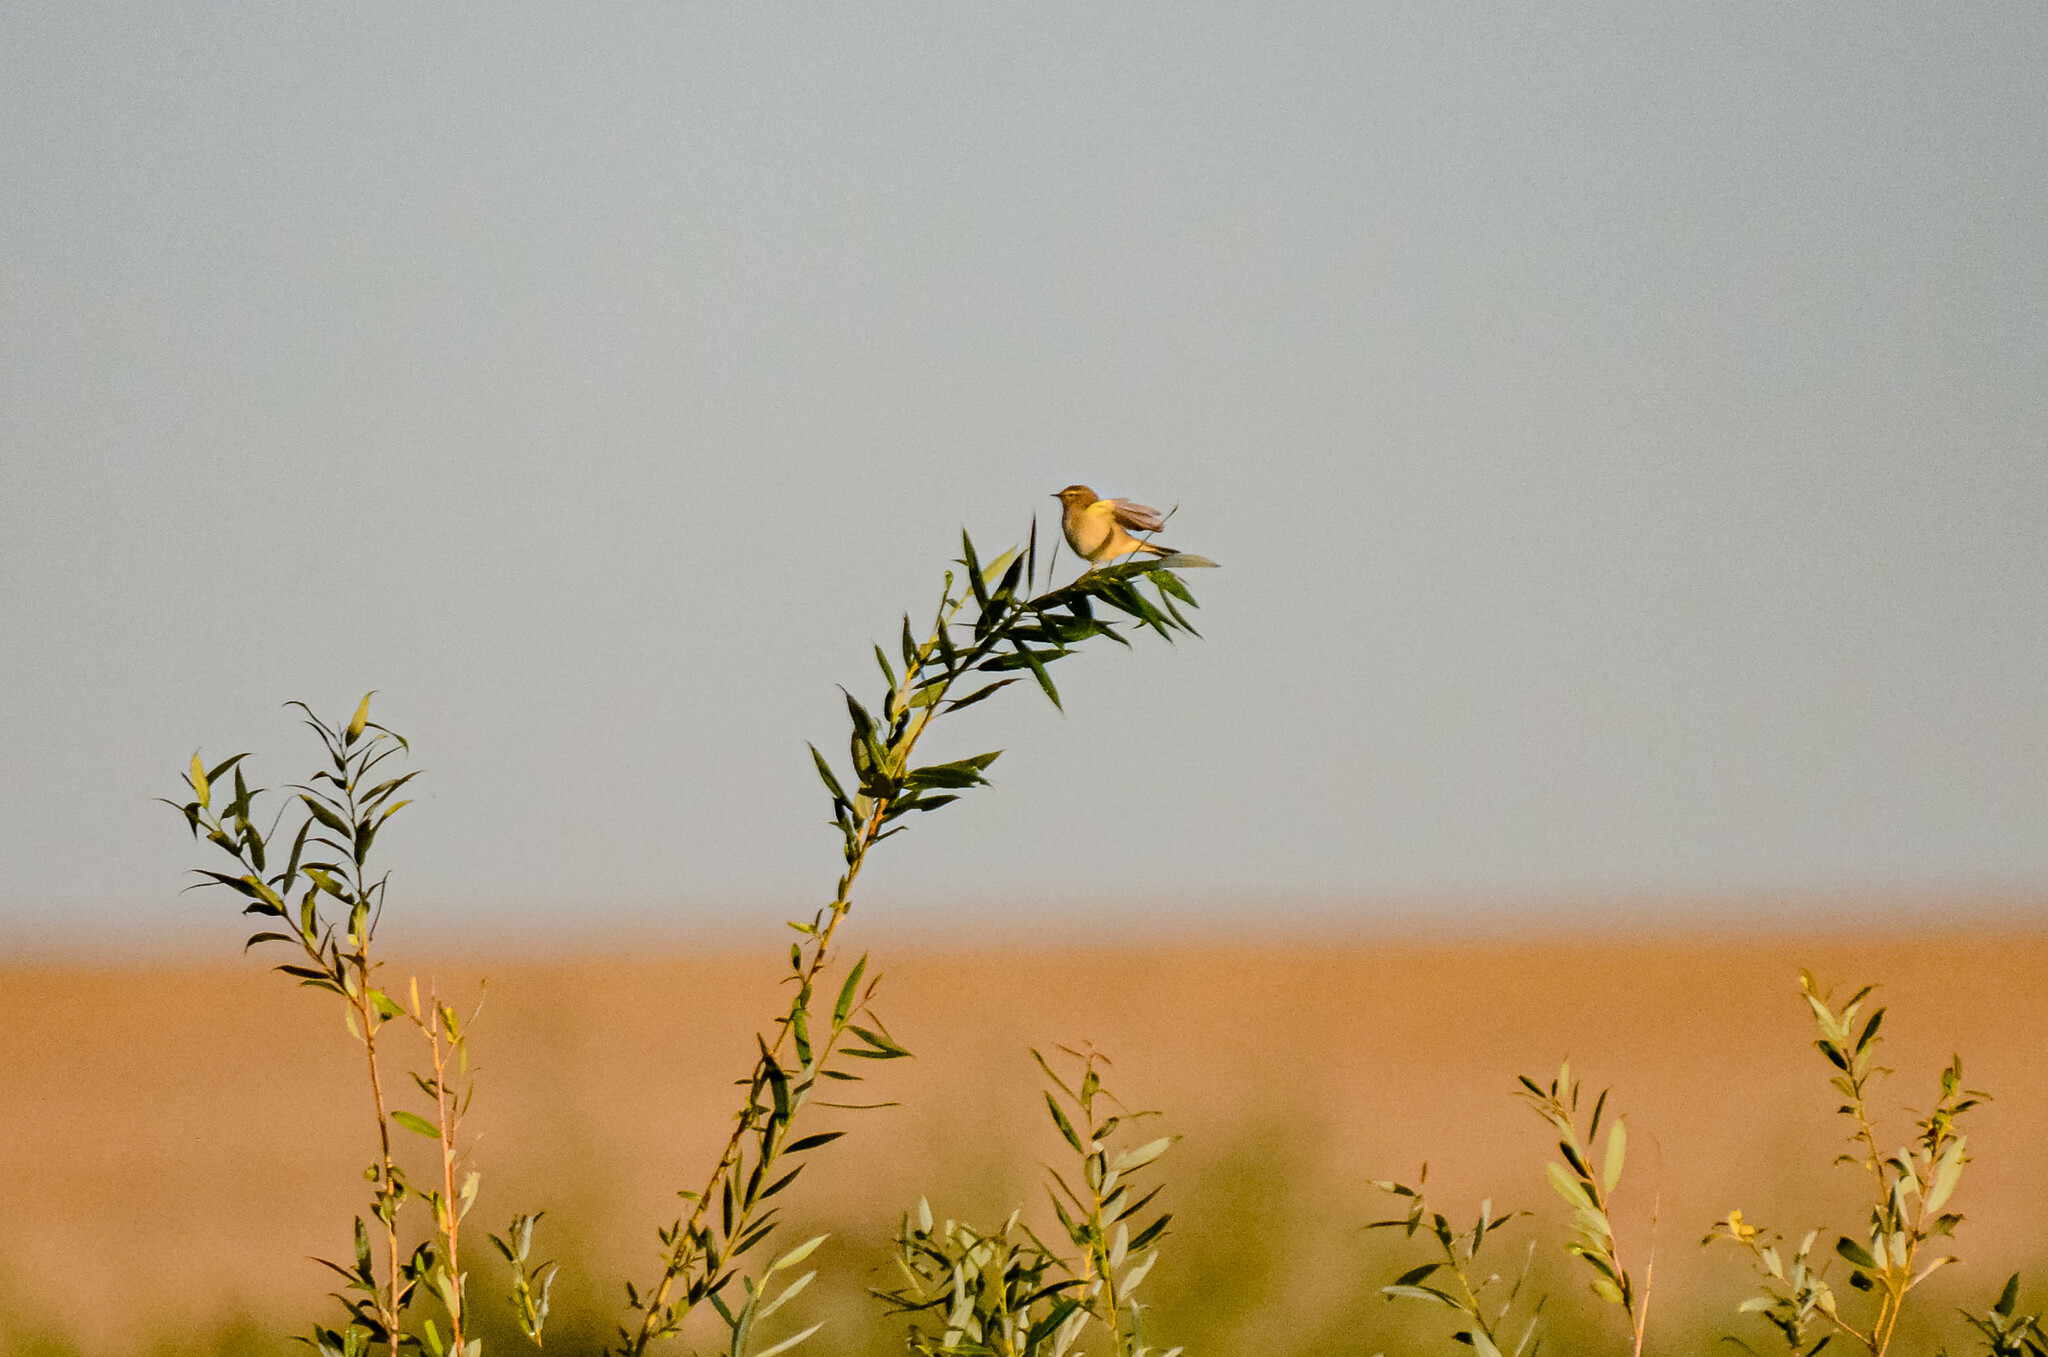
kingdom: Animalia
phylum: Chordata
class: Aves
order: Passeriformes
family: Phylloscopidae
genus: Phylloscopus
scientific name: Phylloscopus trochilus
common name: Willow warbler
